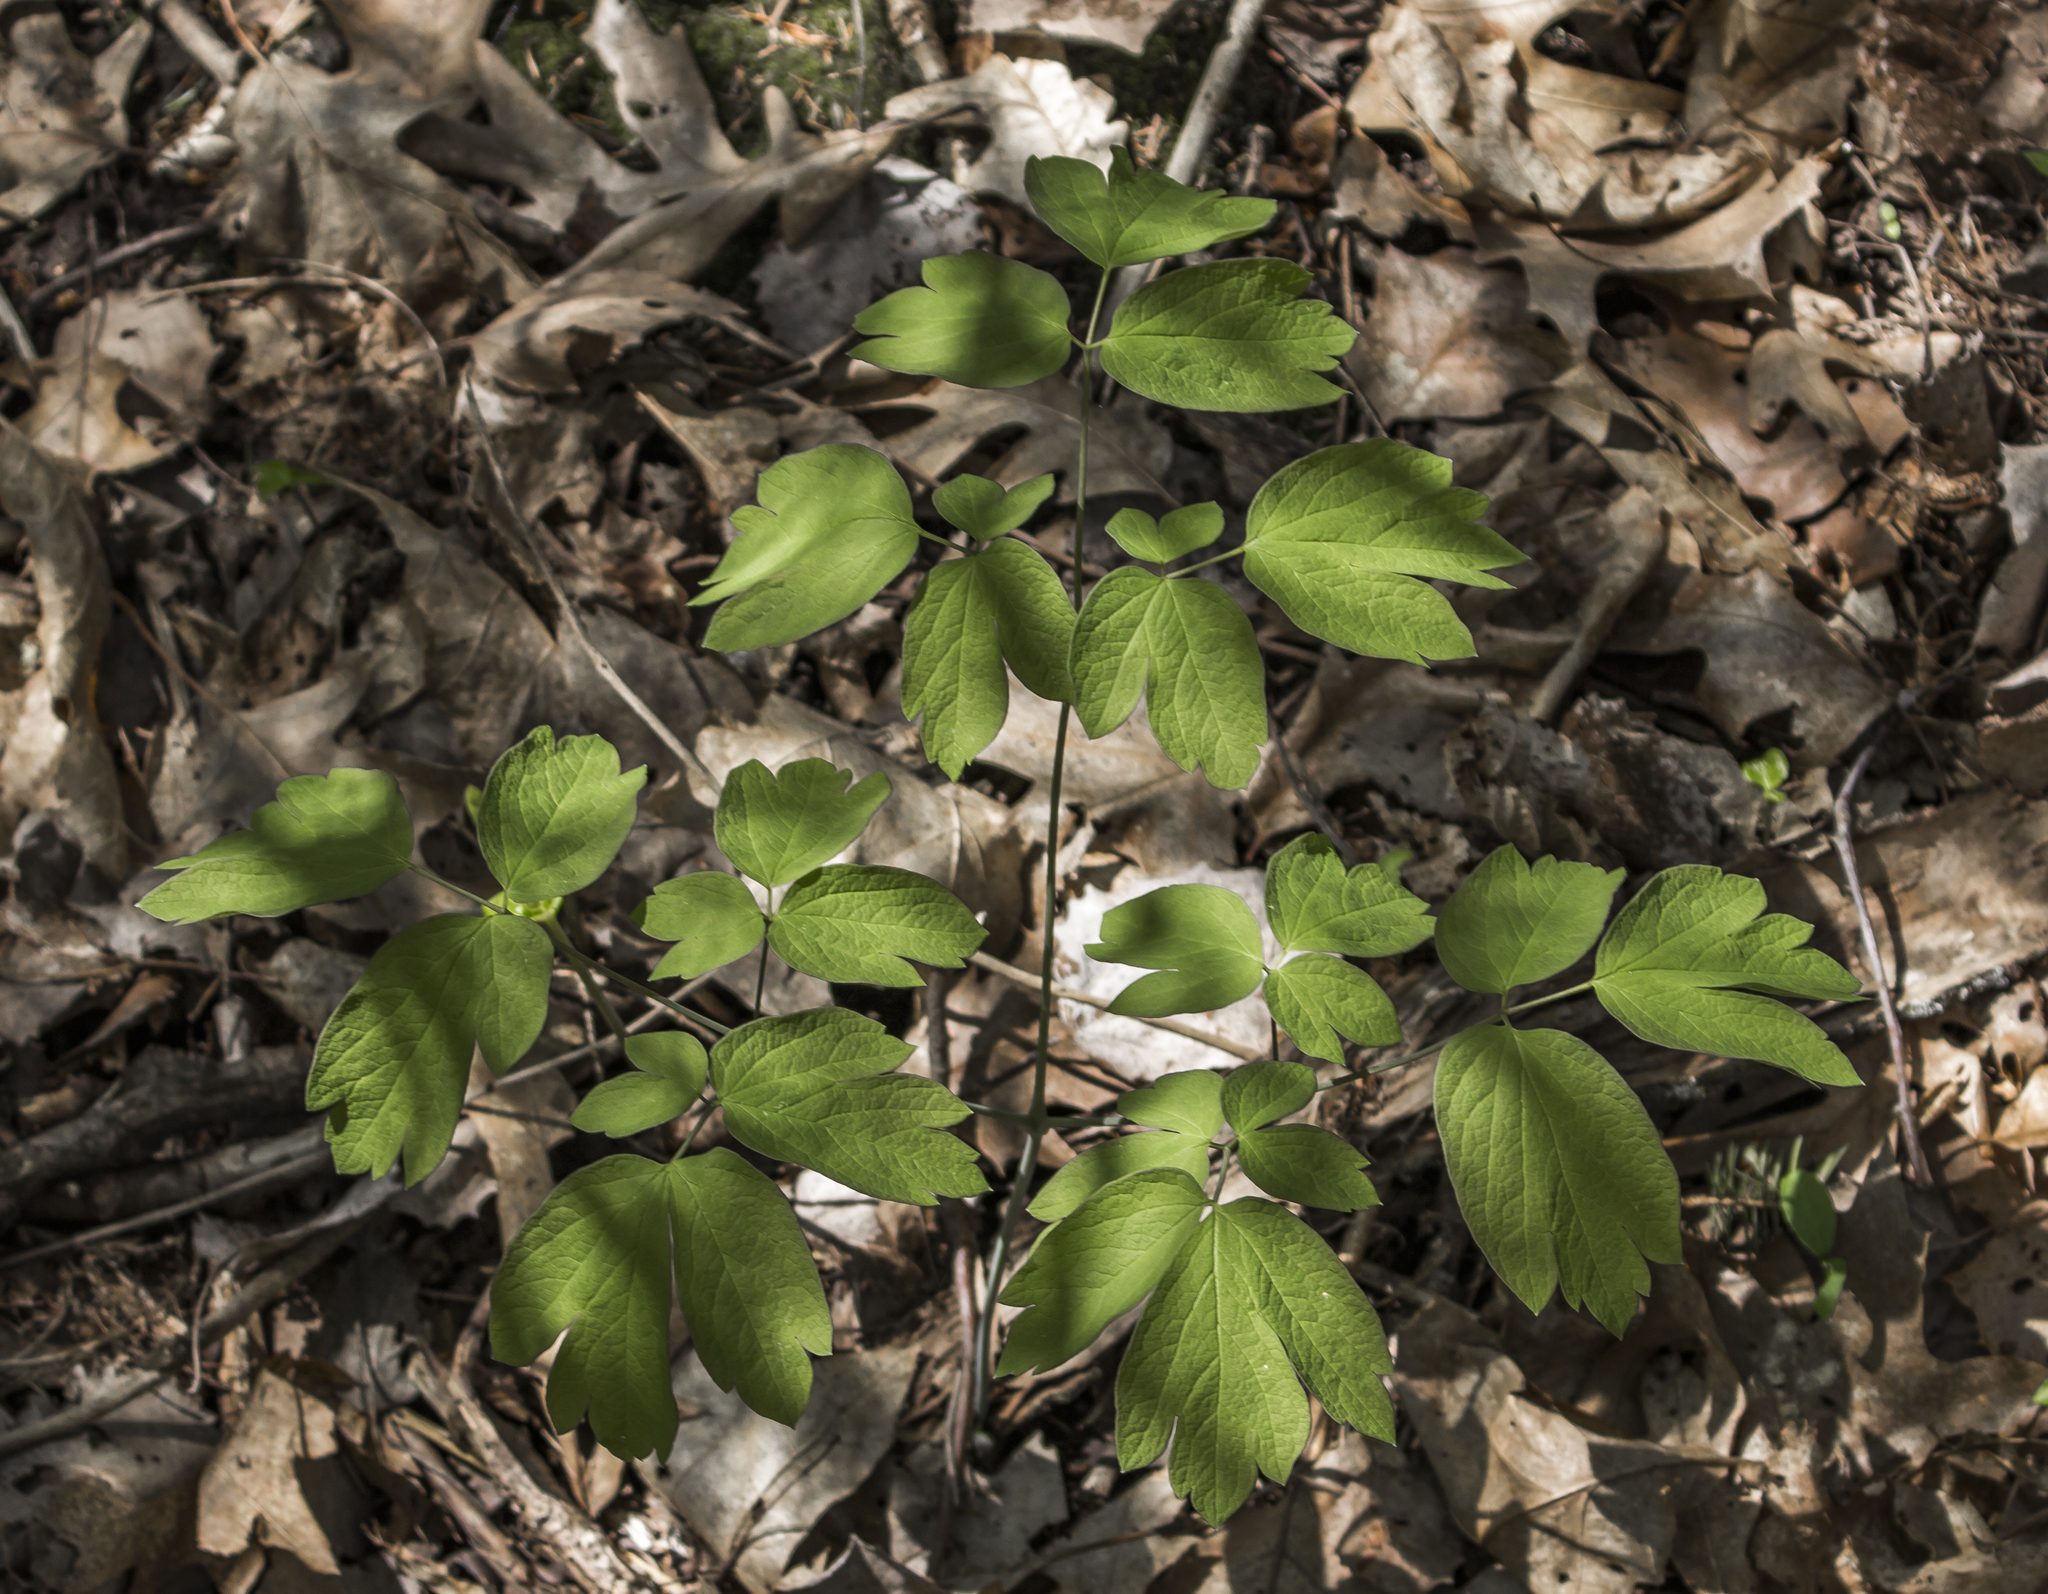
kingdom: Plantae
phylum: Tracheophyta
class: Magnoliopsida
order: Ranunculales
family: Berberidaceae
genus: Caulophyllum
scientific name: Caulophyllum thalictroides
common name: Blue cohosh
